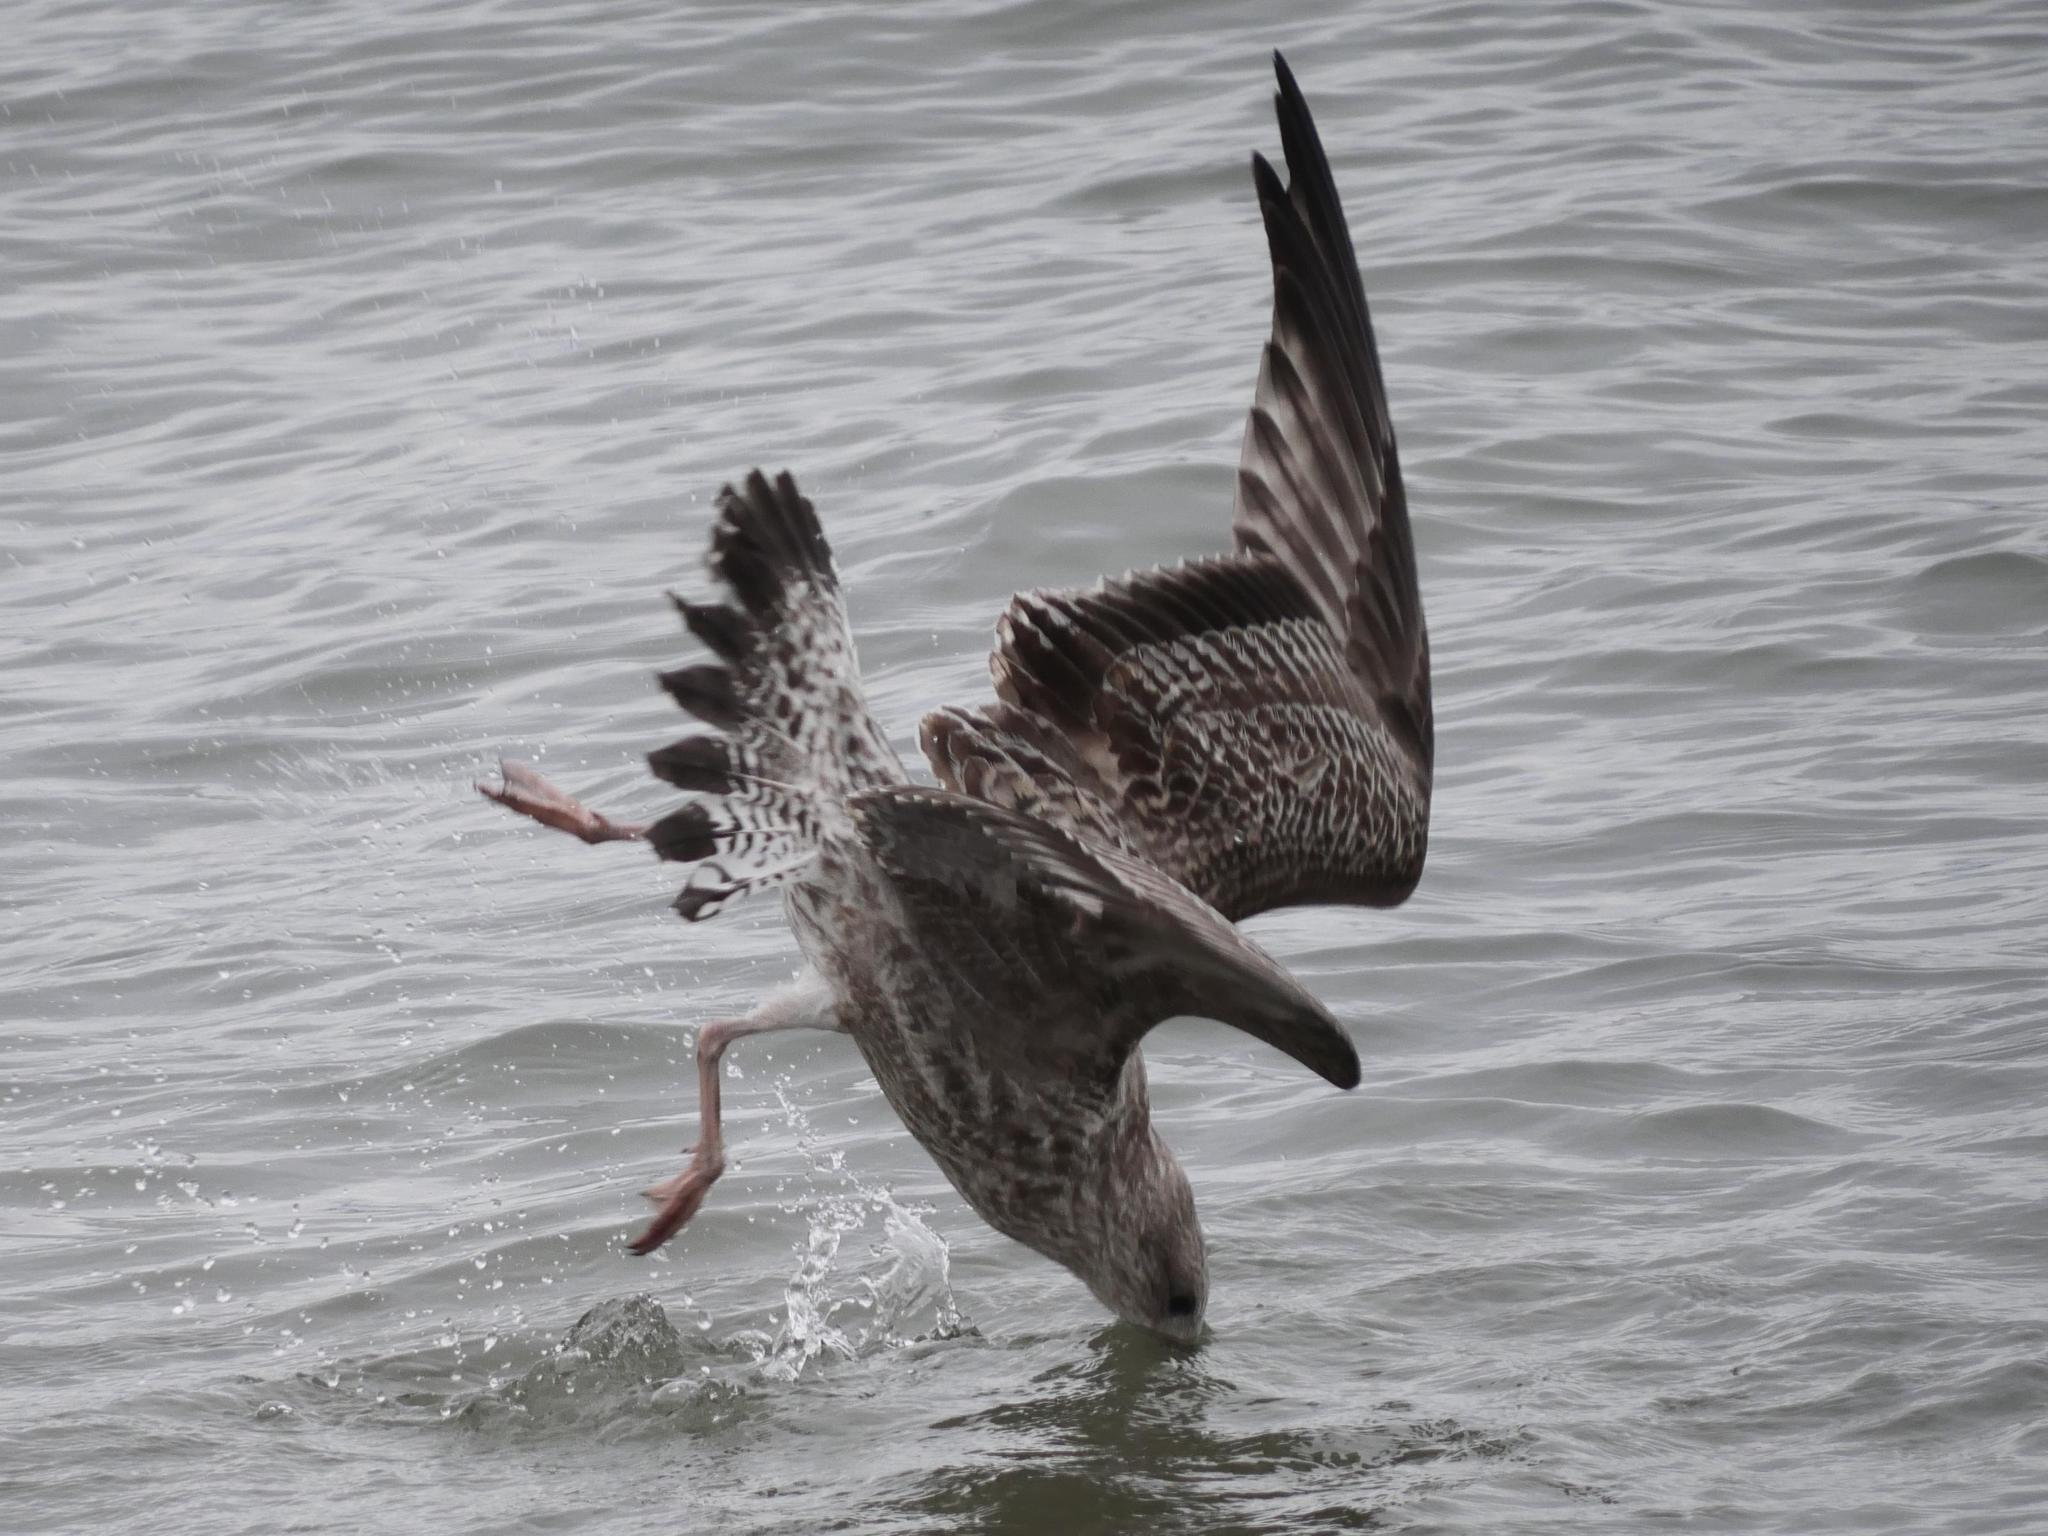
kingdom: Animalia
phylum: Chordata
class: Aves
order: Charadriiformes
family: Laridae
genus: Larus
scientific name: Larus argentatus
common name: Herring gull
